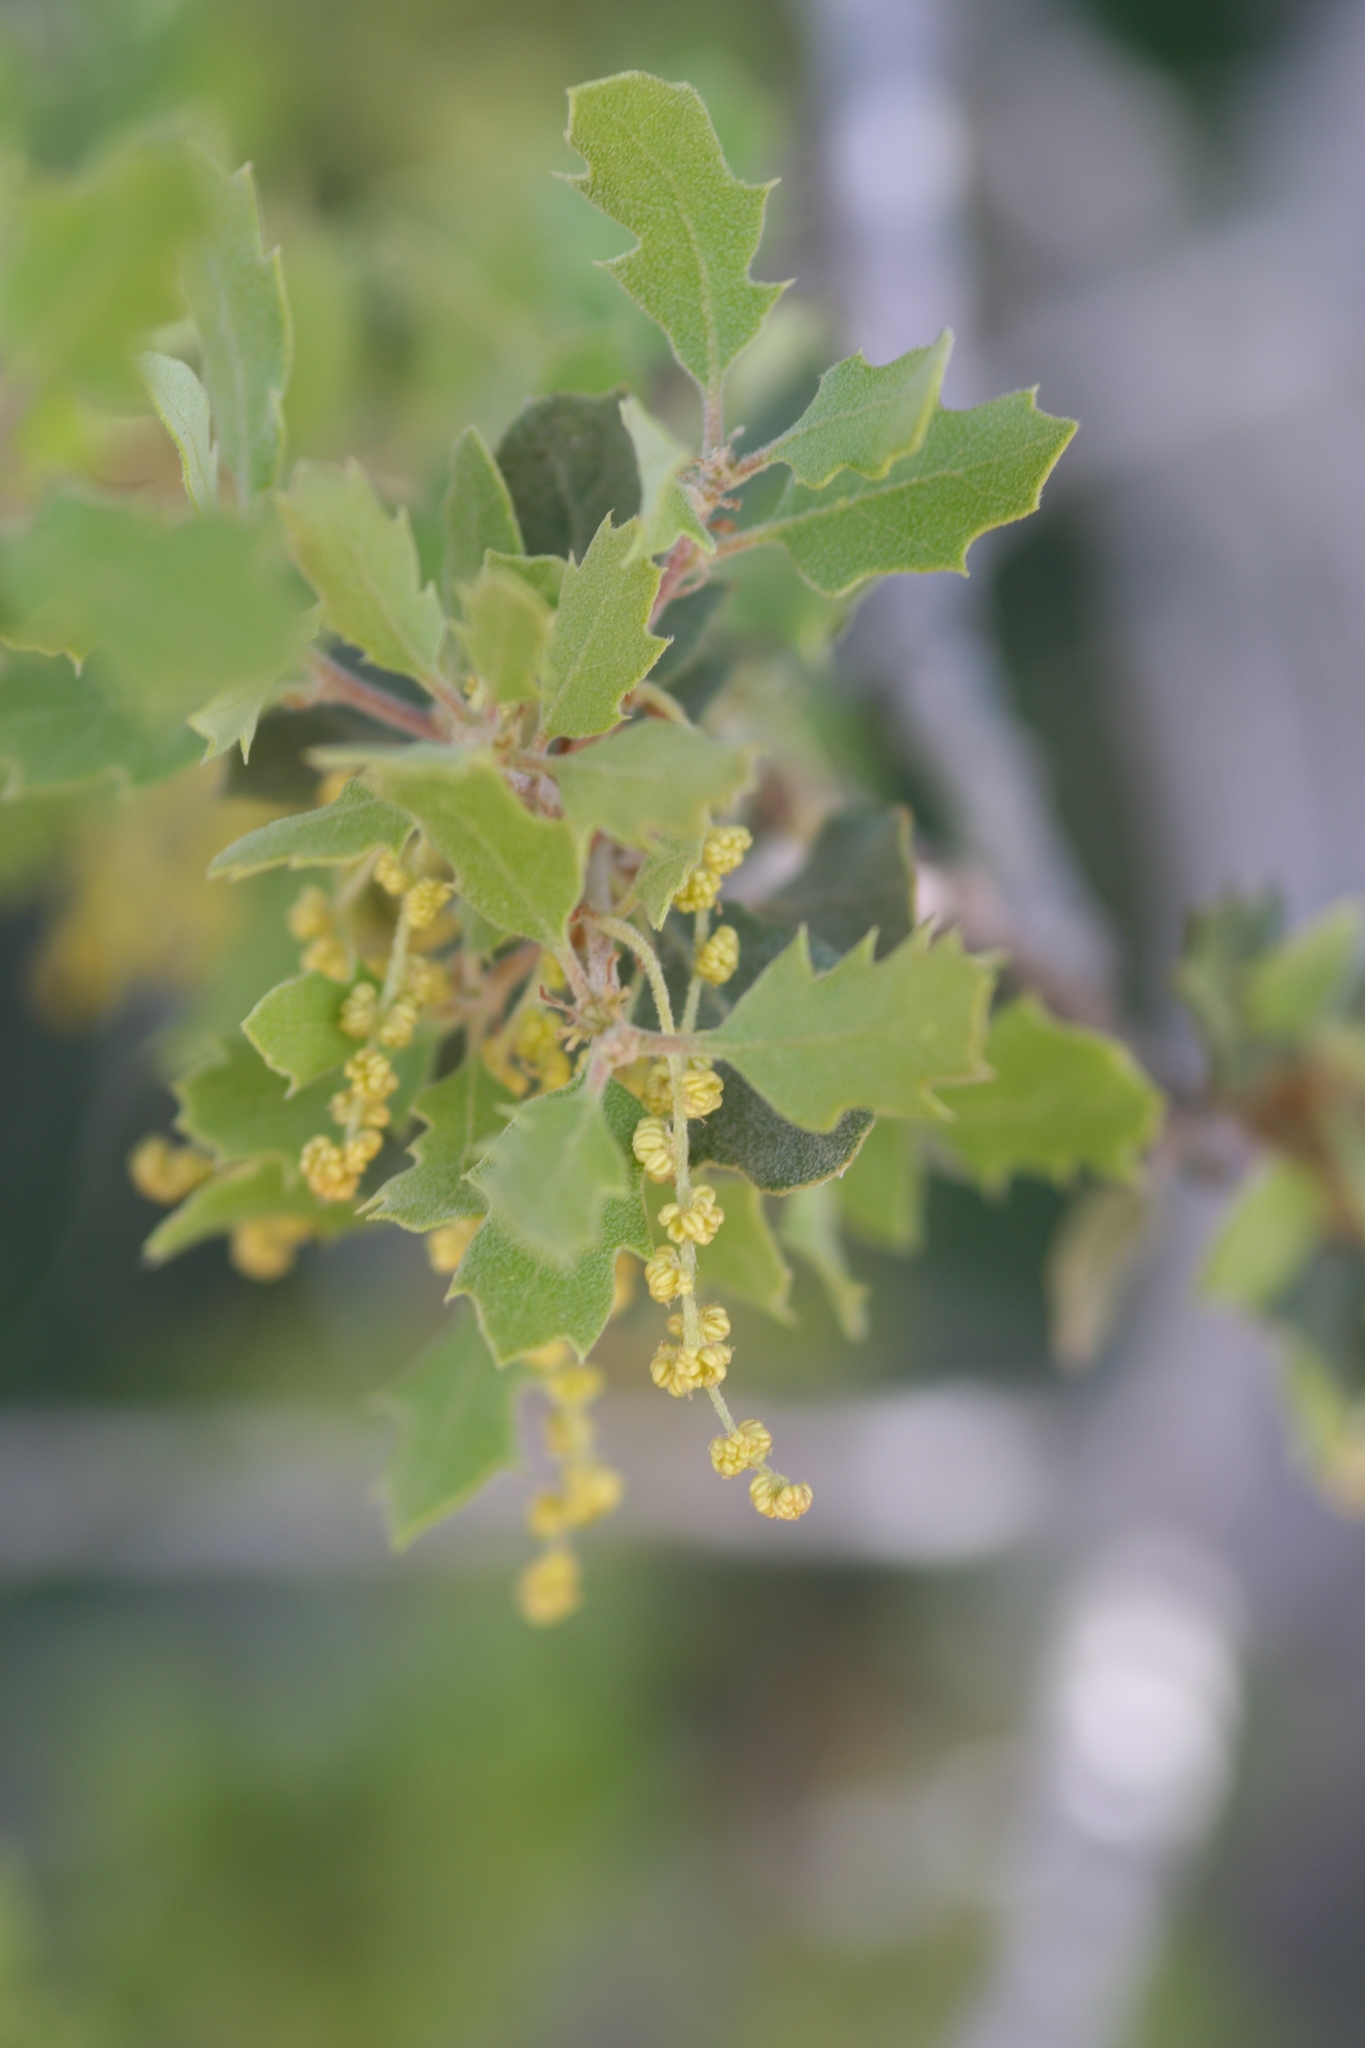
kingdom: Plantae
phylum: Tracheophyta
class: Magnoliopsida
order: Fagales
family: Fagaceae
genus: Quercus
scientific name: Quercus cornelius-mulleri
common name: Muller oak
